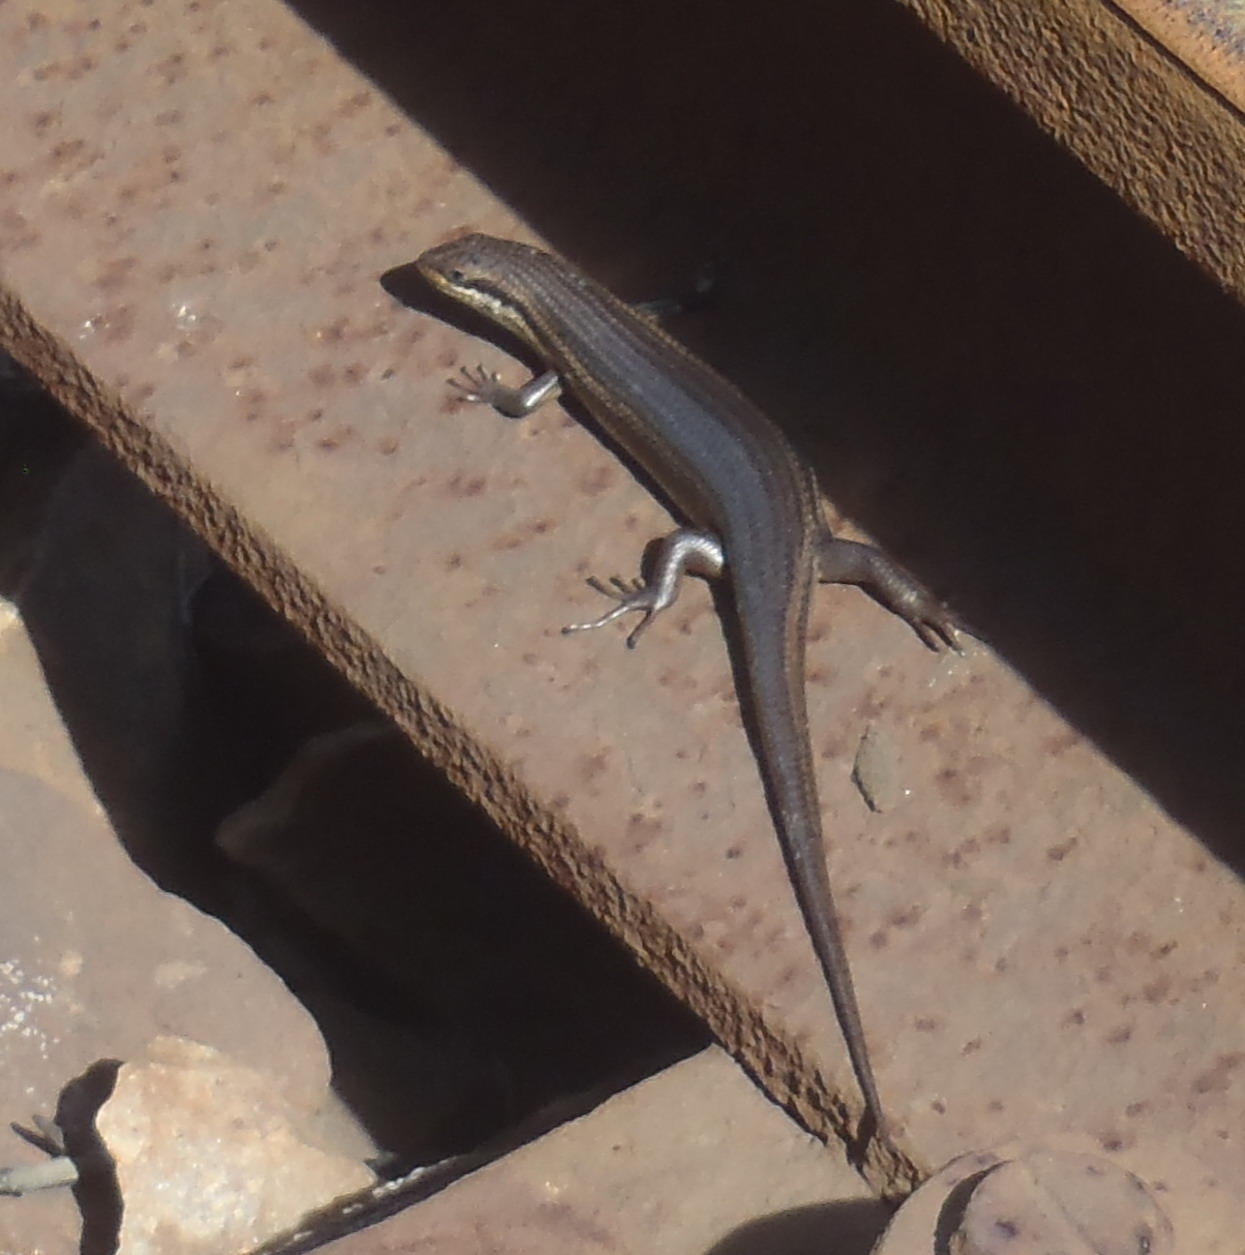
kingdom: Animalia
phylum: Chordata
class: Squamata
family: Scincidae
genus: Trachylepis
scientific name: Trachylepis homalocephala
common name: Red-sided skink
